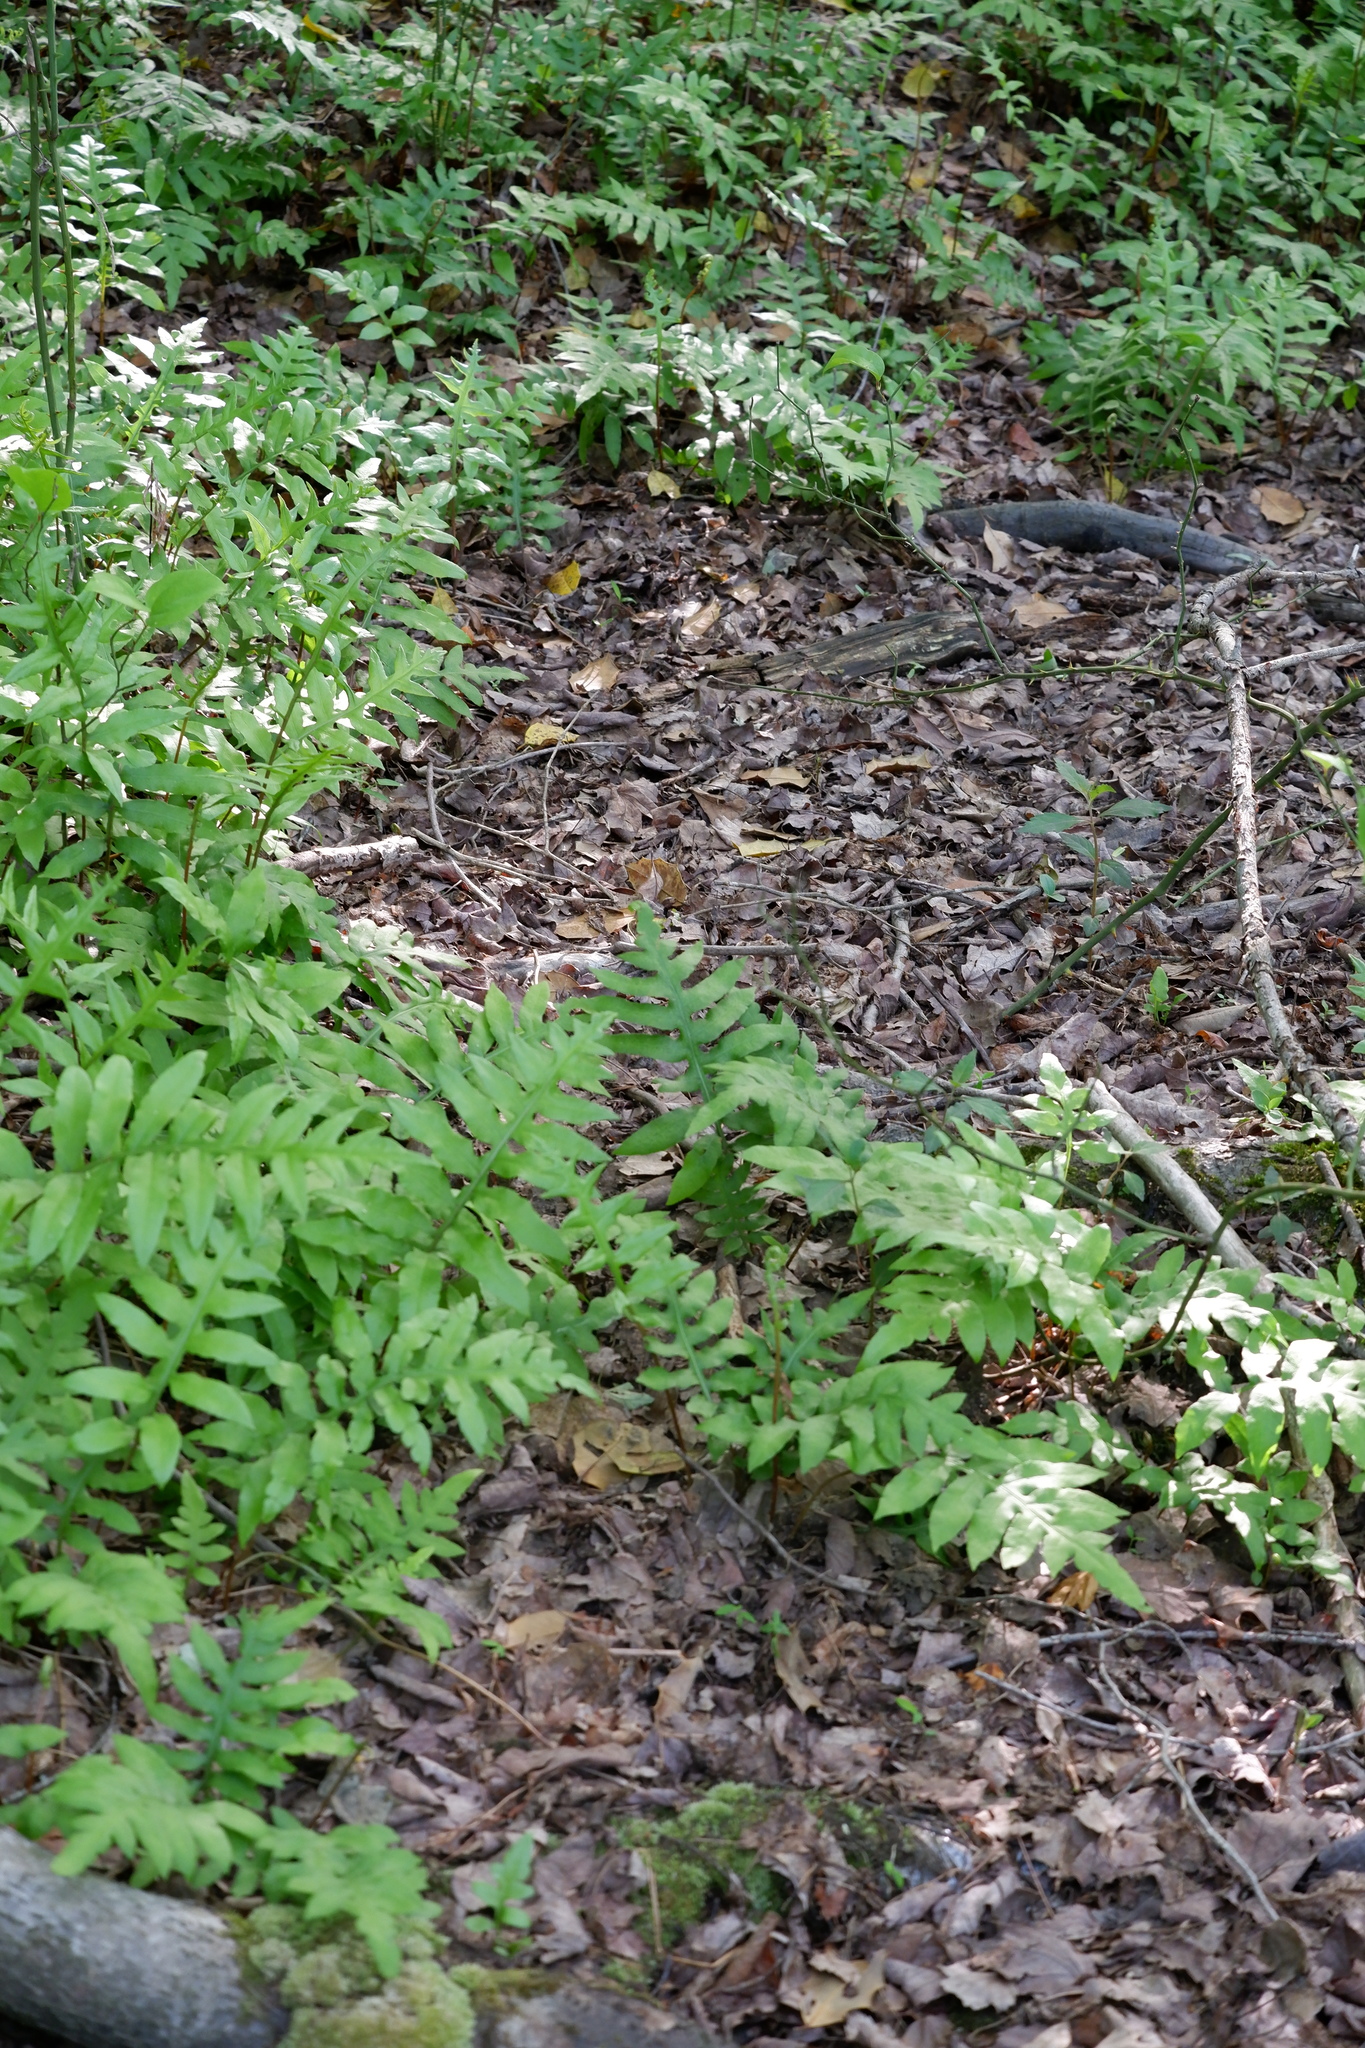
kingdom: Plantae
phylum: Tracheophyta
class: Polypodiopsida
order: Polypodiales
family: Blechnaceae
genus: Lorinseria
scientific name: Lorinseria areolata
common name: Dwarf chain fern
